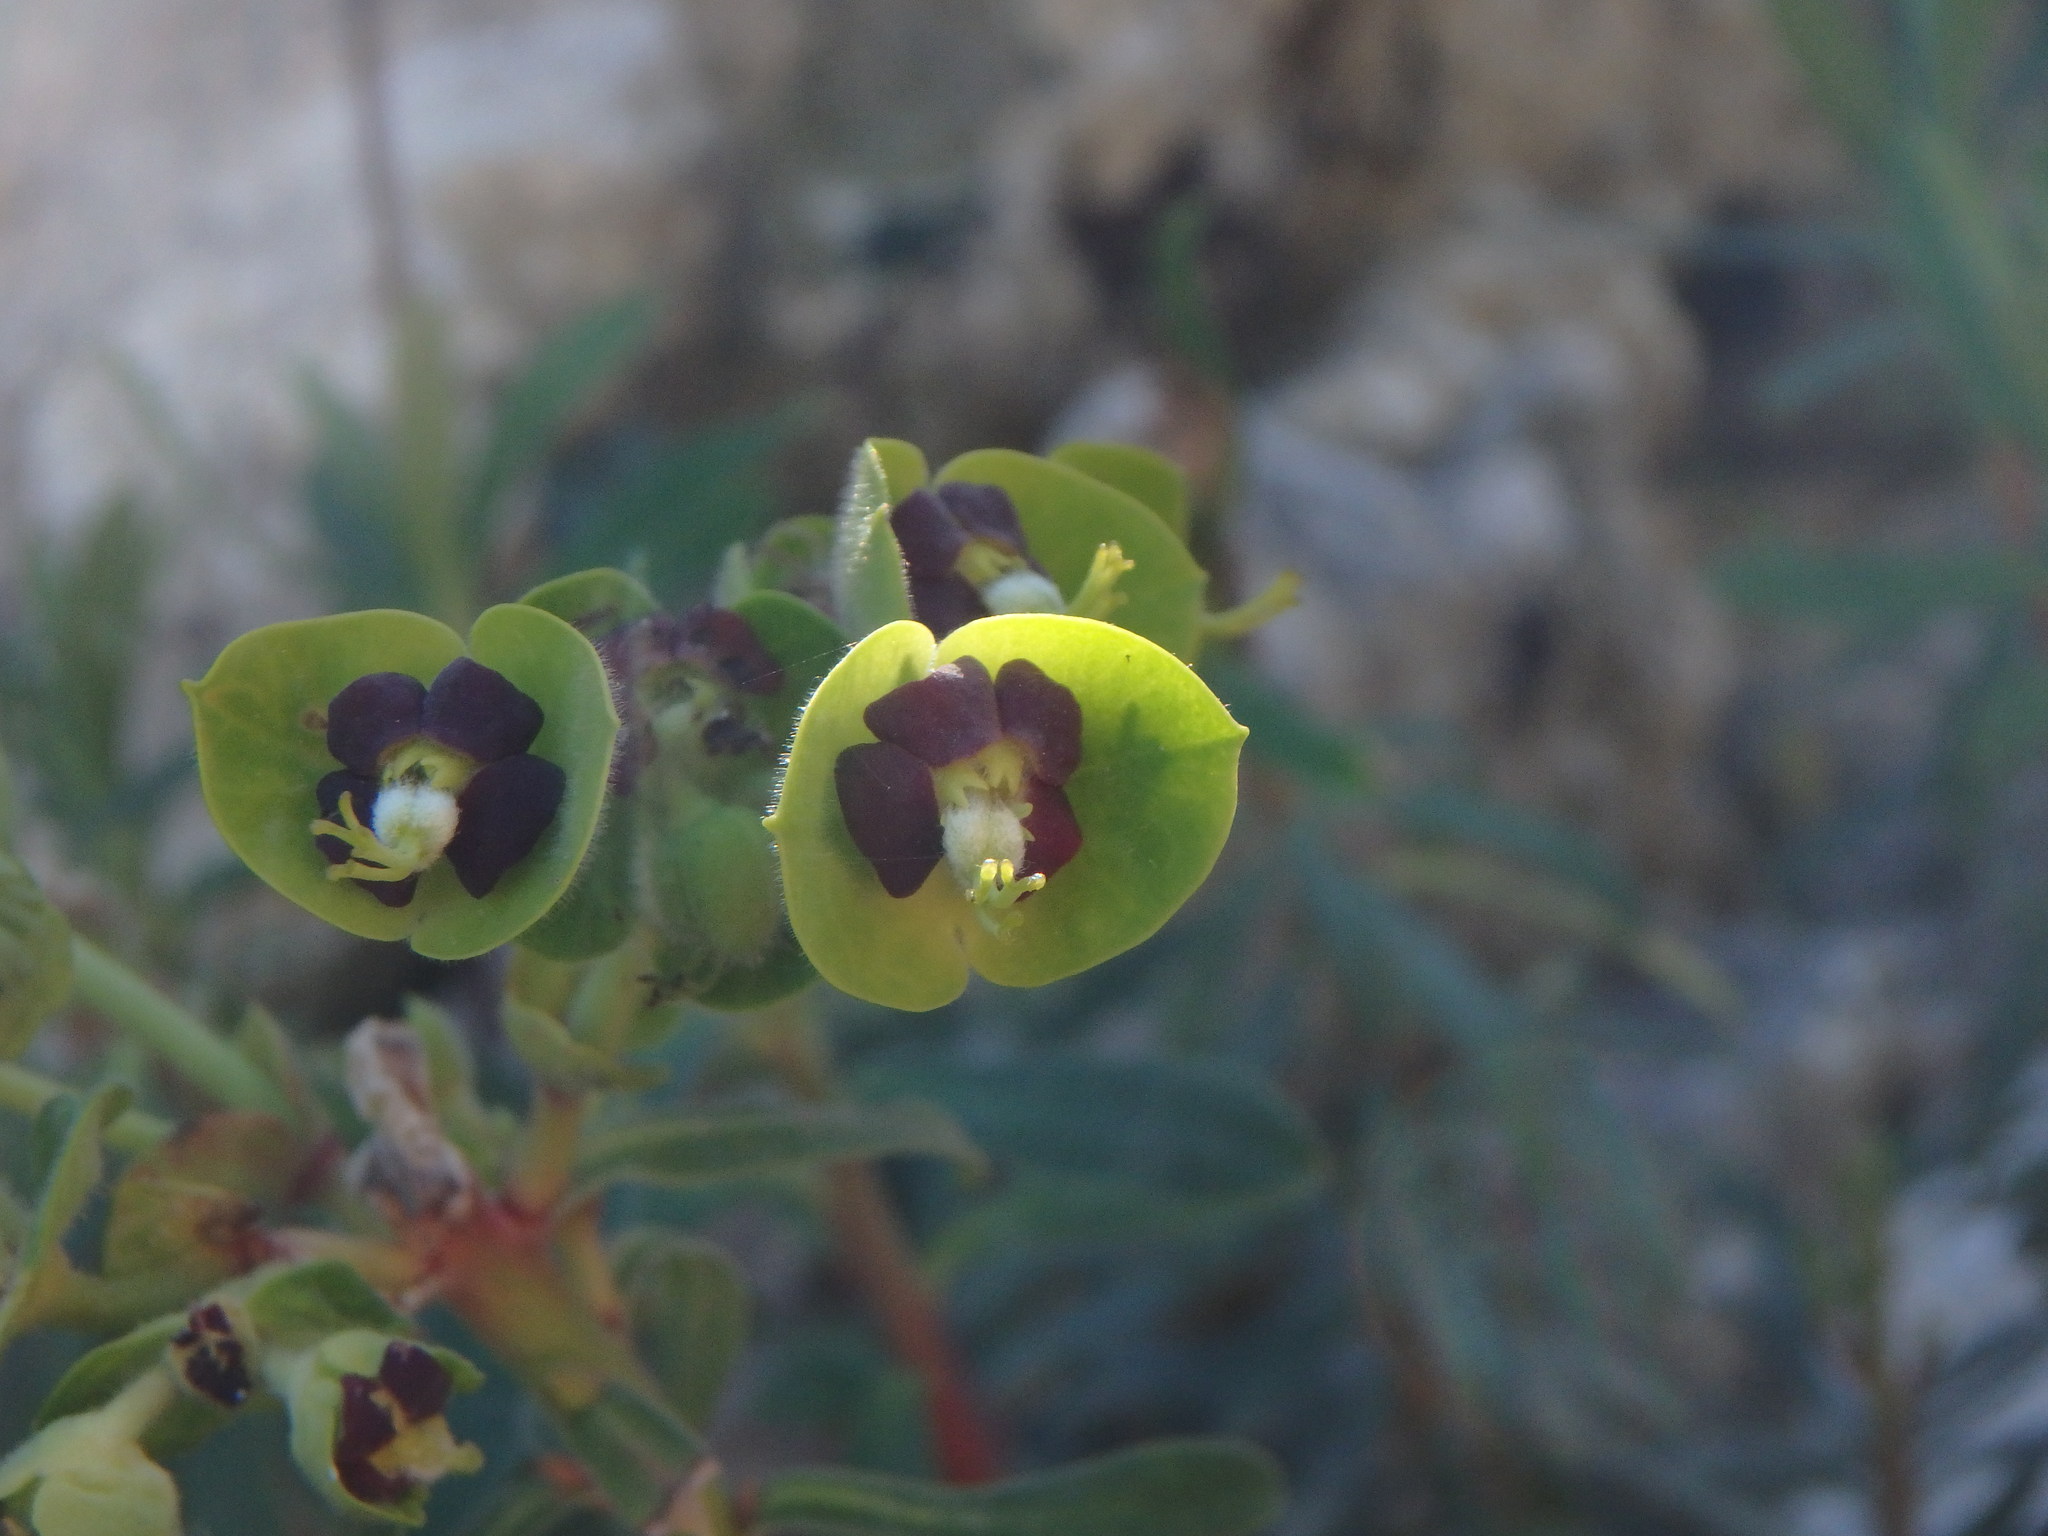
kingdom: Plantae
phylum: Tracheophyta
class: Magnoliopsida
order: Malpighiales
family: Euphorbiaceae
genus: Euphorbia
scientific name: Euphorbia characias
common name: Mediterranean spurge
